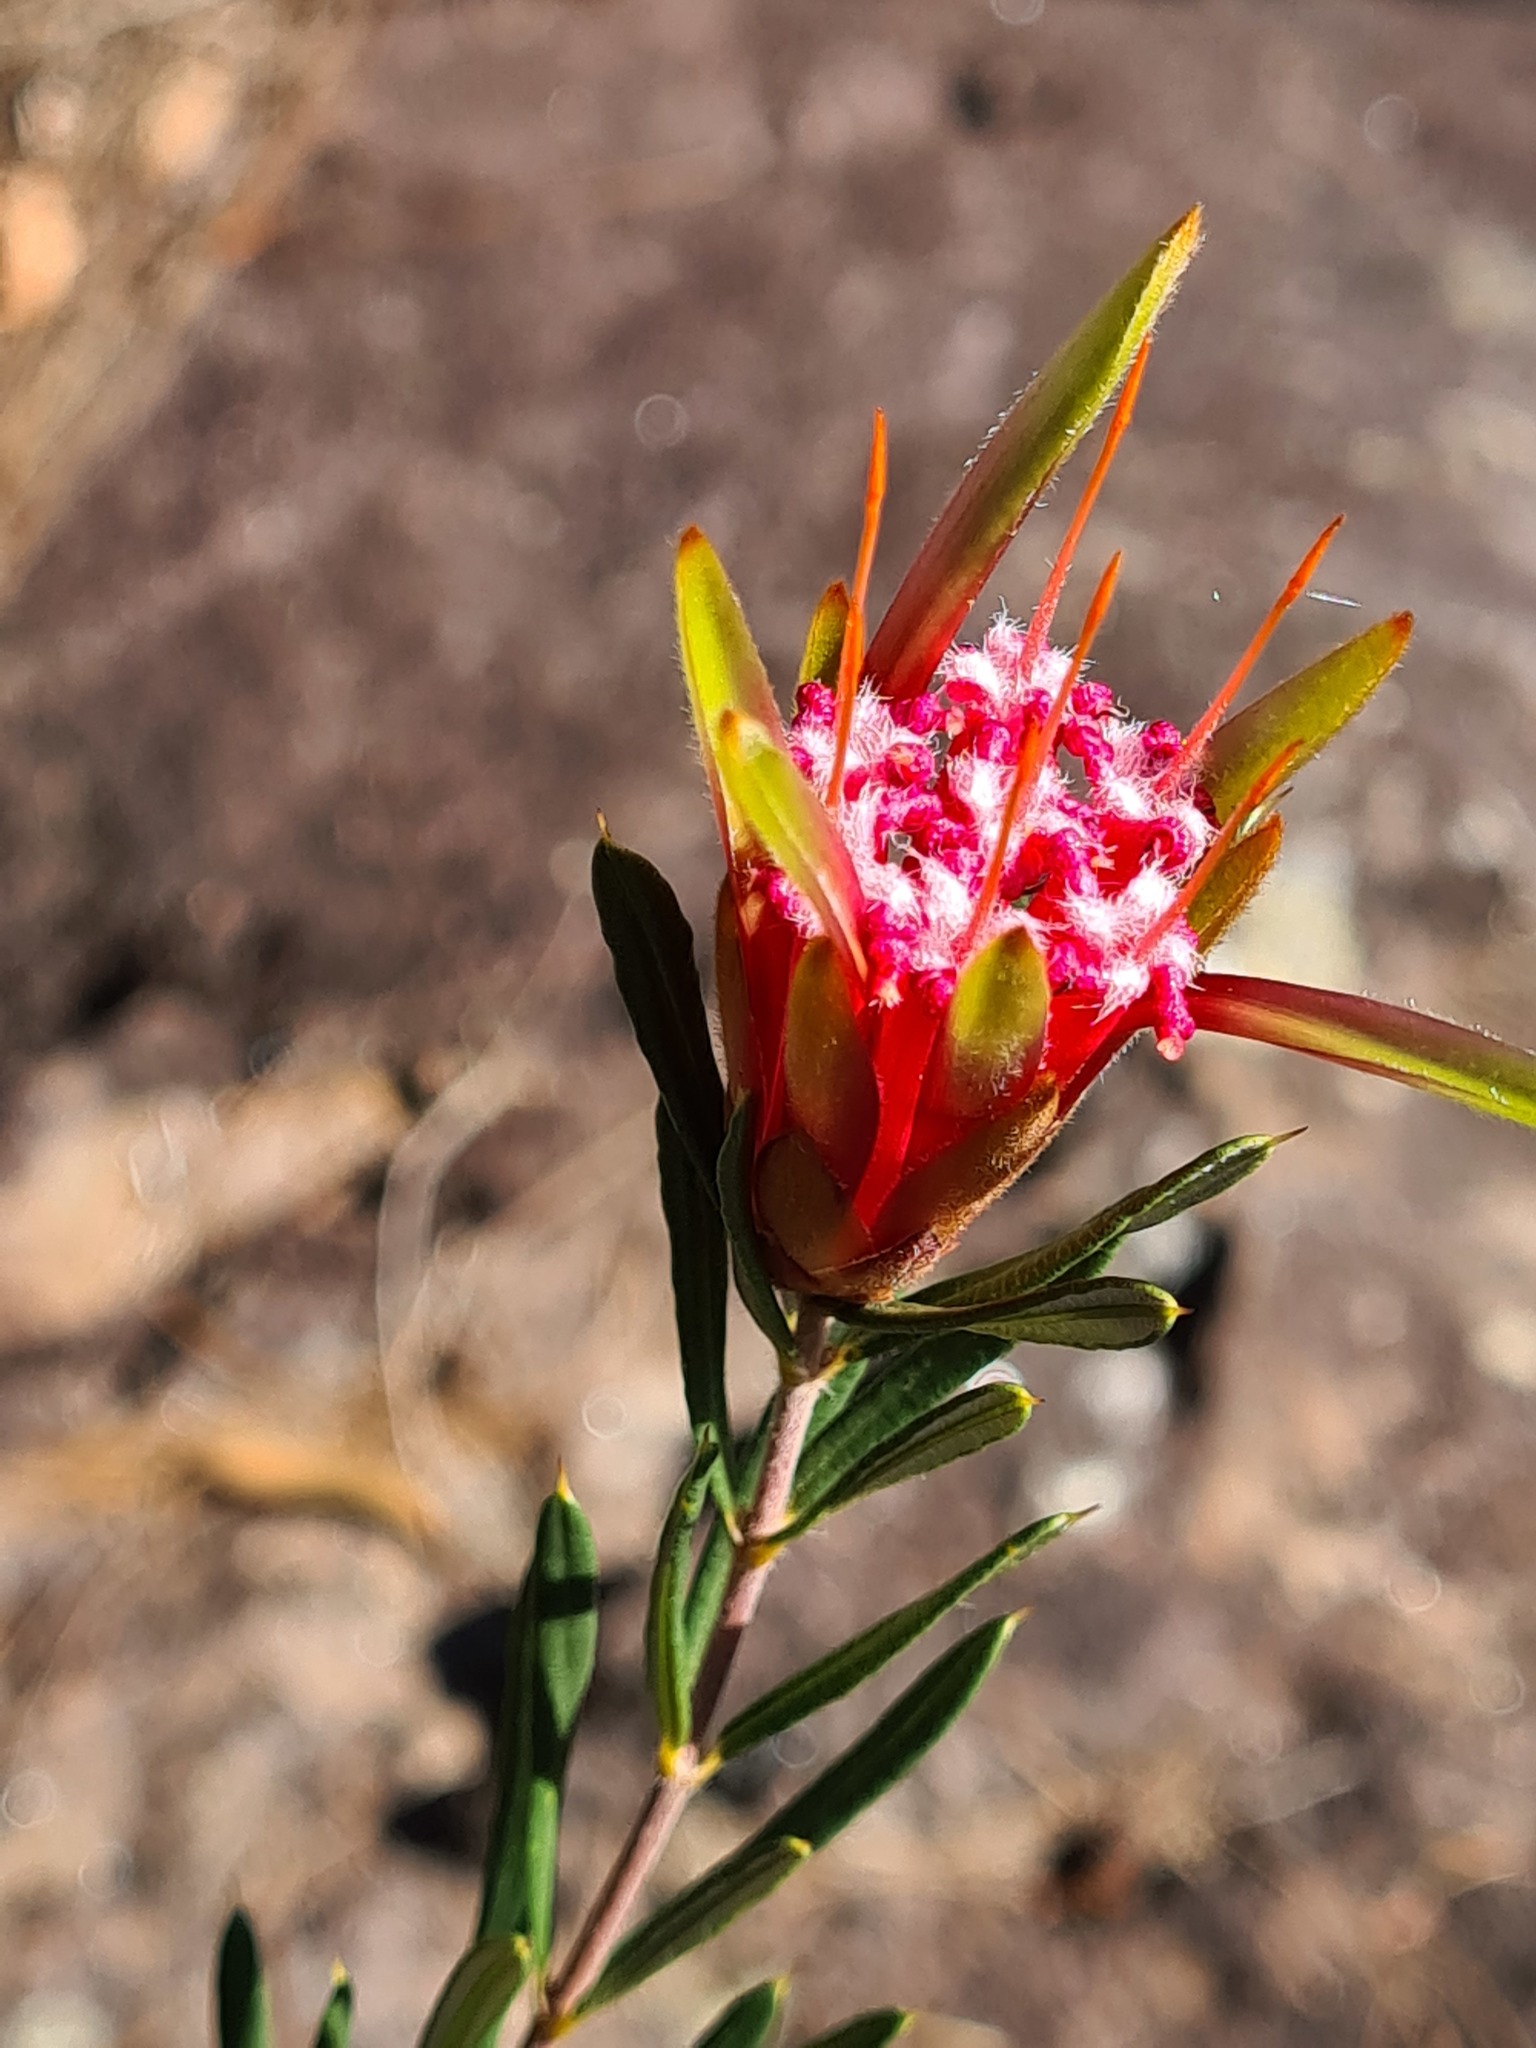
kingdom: Plantae
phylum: Tracheophyta
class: Magnoliopsida
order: Proteales
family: Proteaceae
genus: Lambertia
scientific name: Lambertia formosa
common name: Mountain-devil
